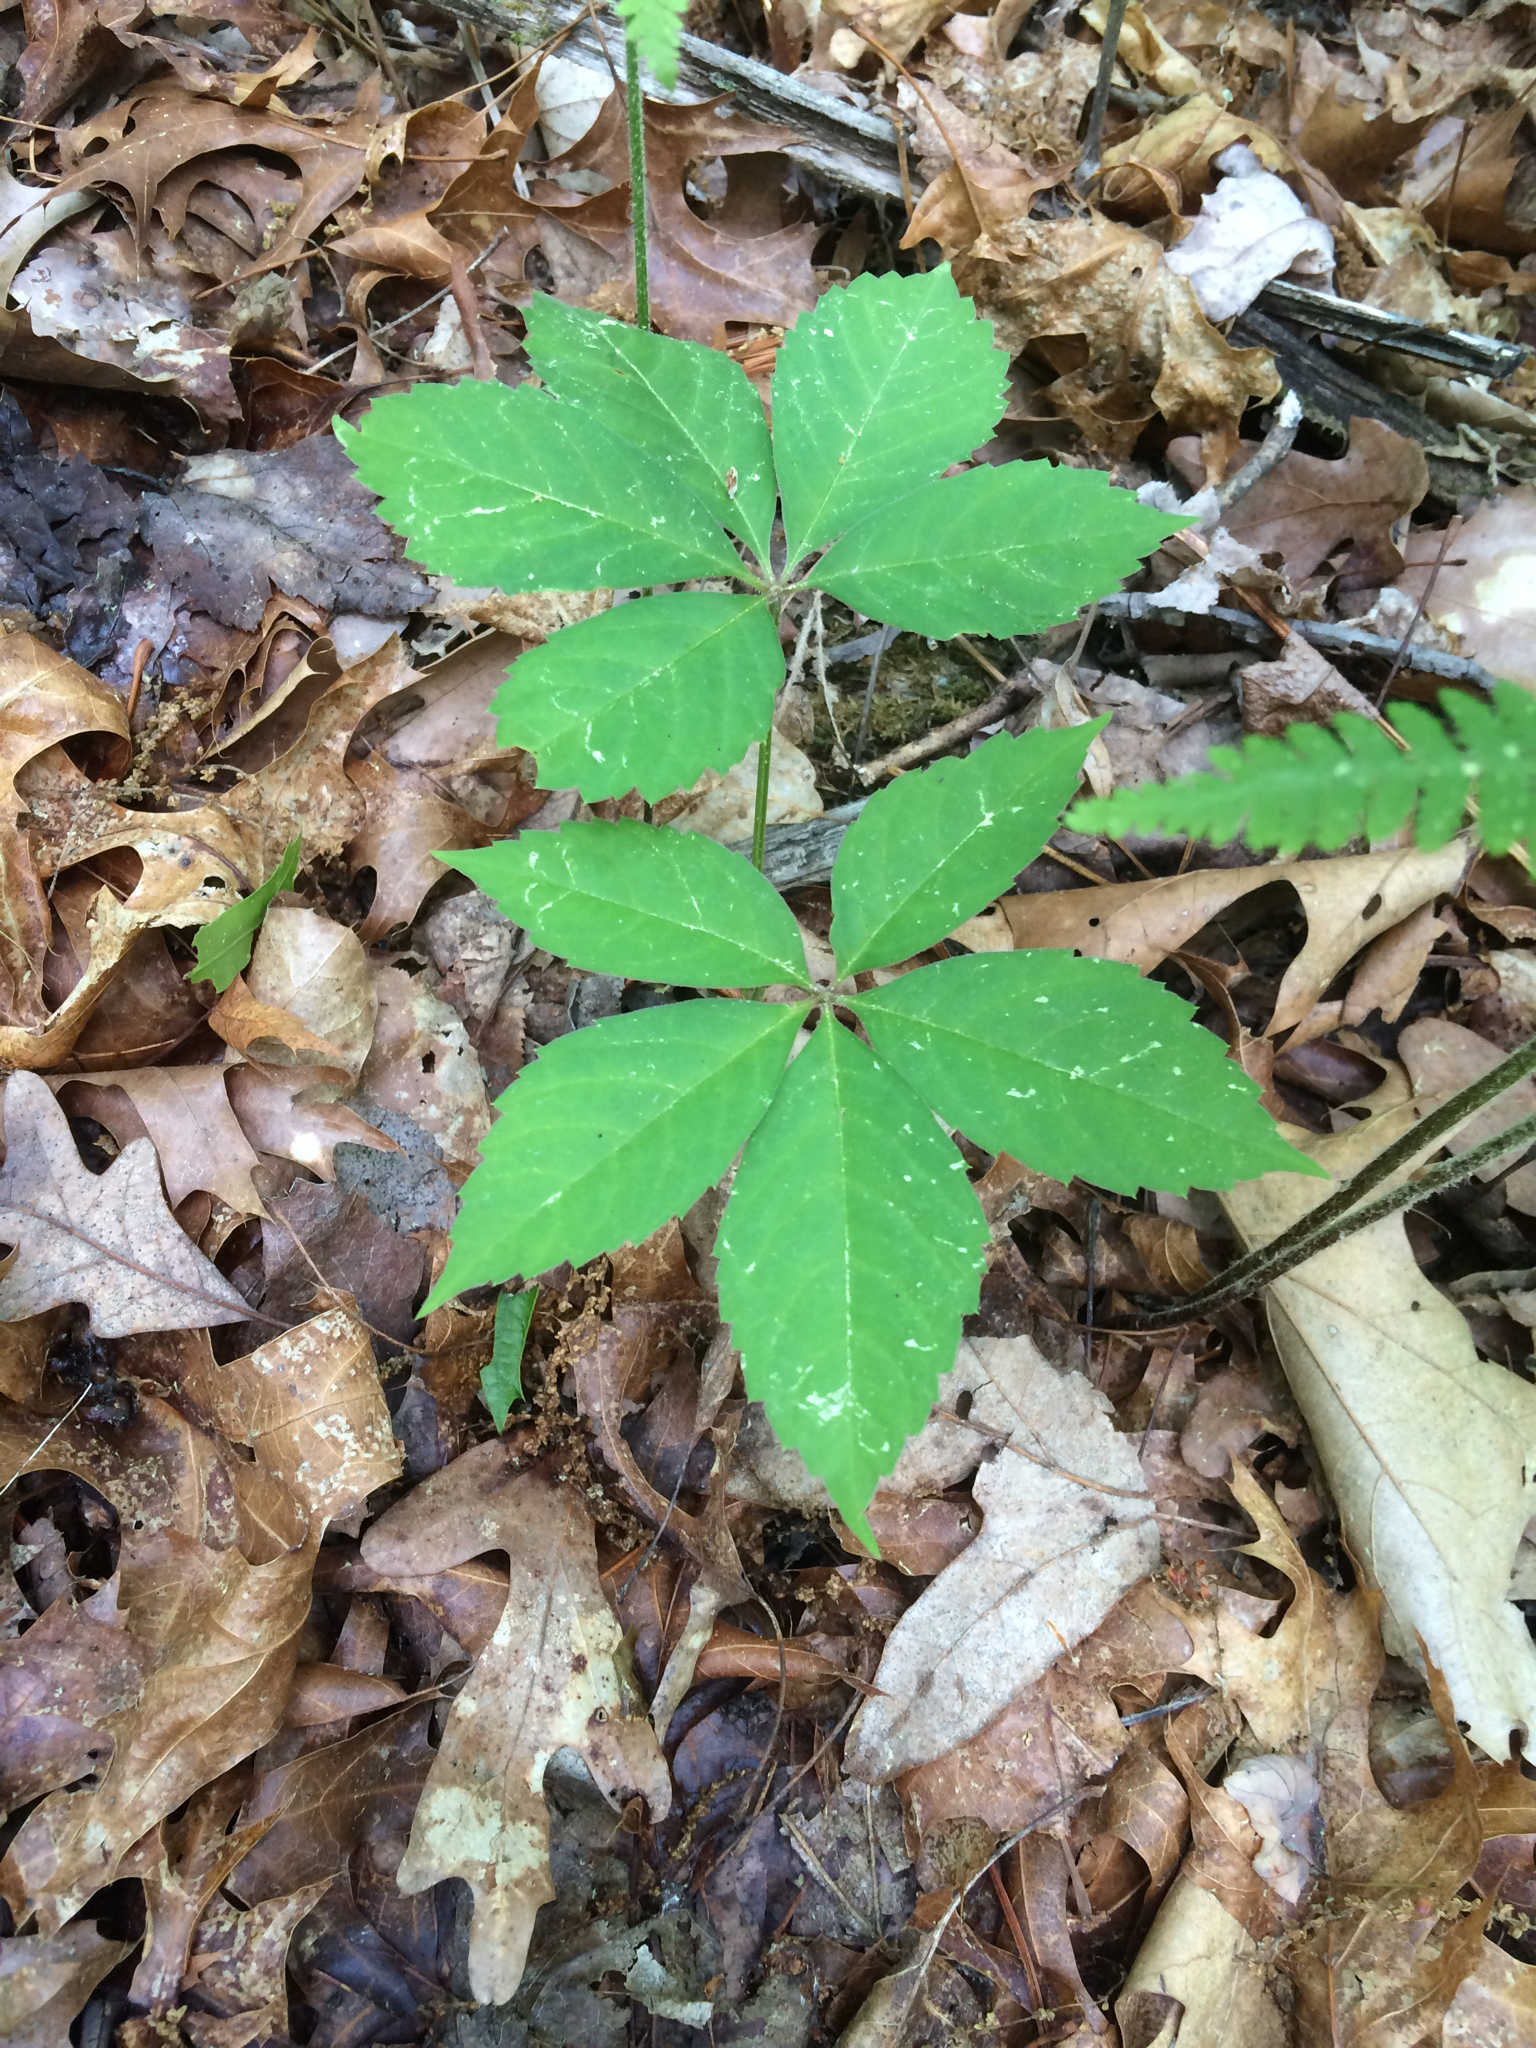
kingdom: Plantae
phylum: Tracheophyta
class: Magnoliopsida
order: Vitales
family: Vitaceae
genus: Parthenocissus
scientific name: Parthenocissus quinquefolia
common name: Virginia-creeper
